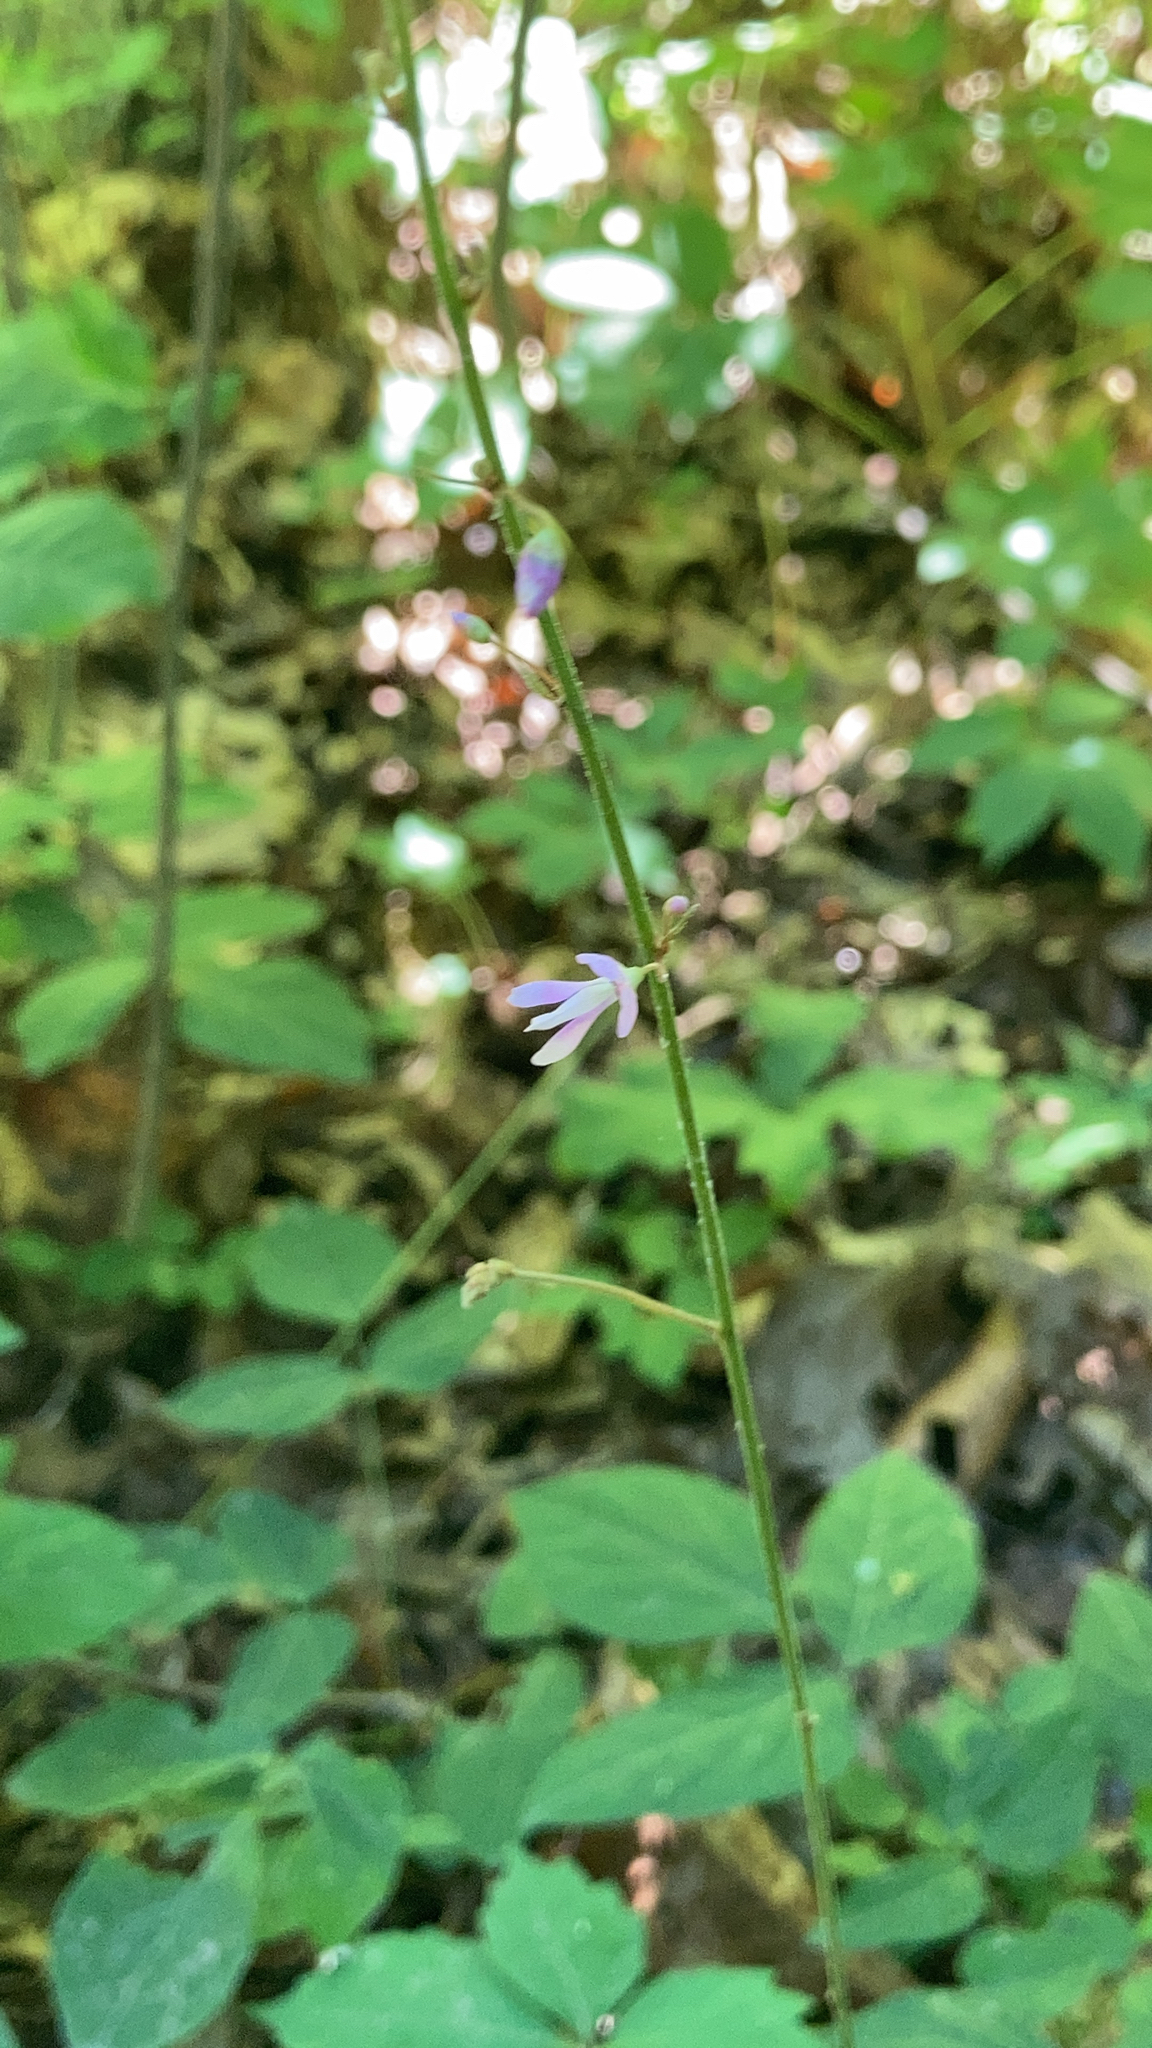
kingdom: Plantae
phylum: Tracheophyta
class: Magnoliopsida
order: Fabales
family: Fabaceae
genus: Hylodesmum
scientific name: Hylodesmum nudiflorum
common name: Bare-stemmed tick-trefoil
